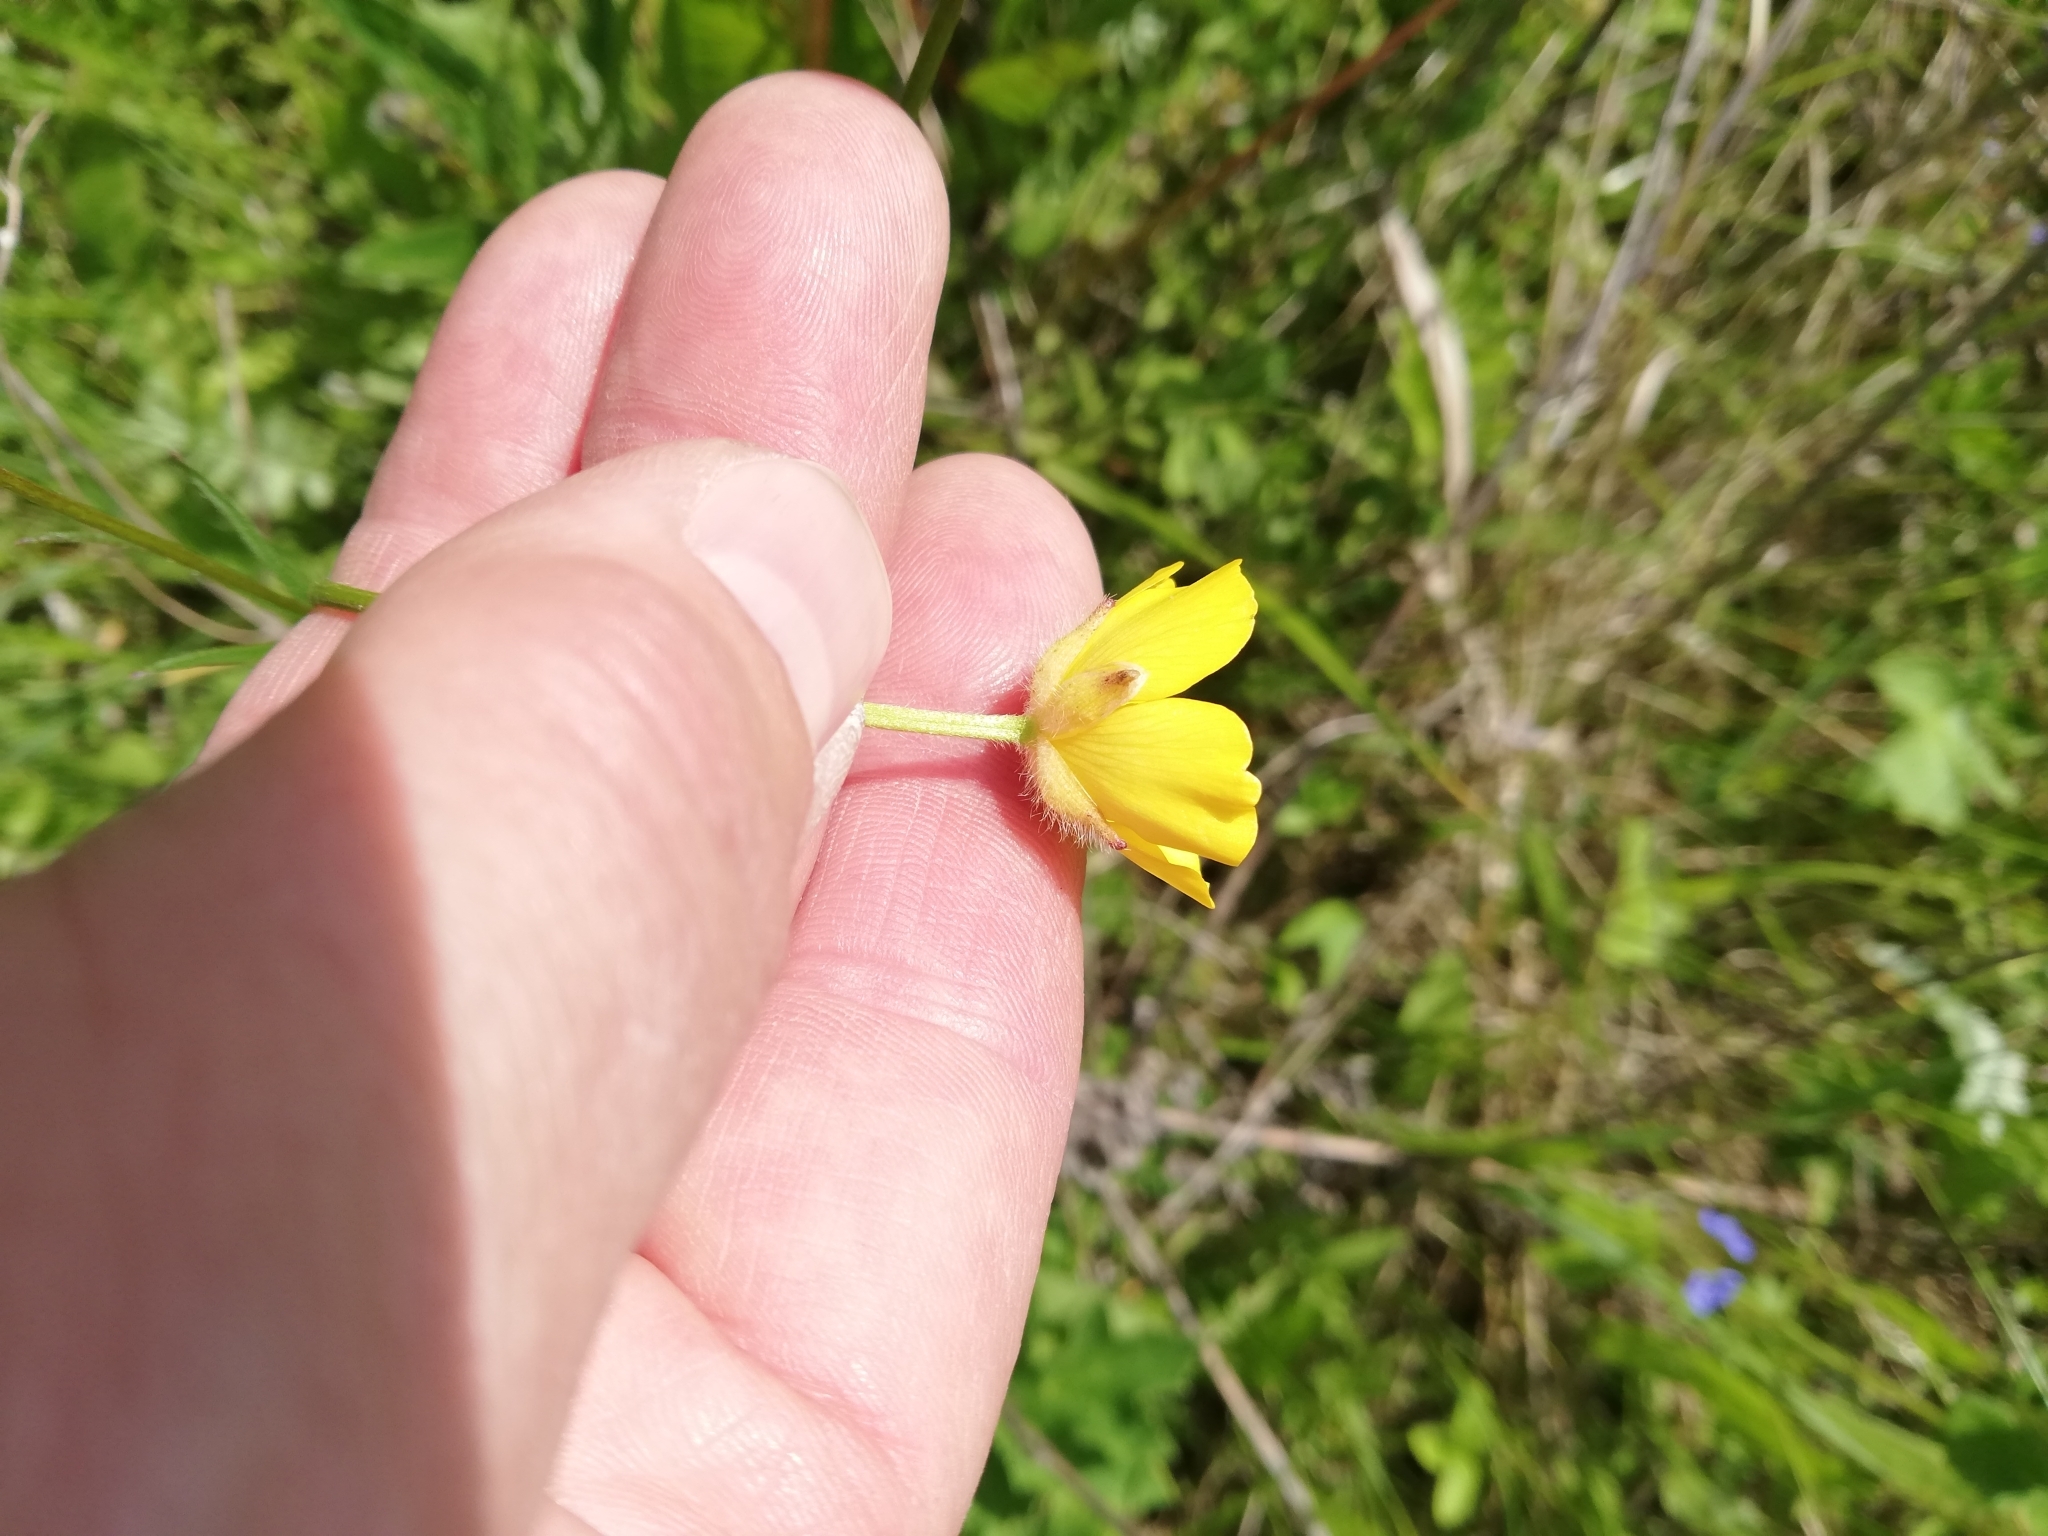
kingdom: Plantae
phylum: Tracheophyta
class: Magnoliopsida
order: Ranunculales
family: Ranunculaceae
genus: Ranunculus
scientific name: Ranunculus polyanthemos
